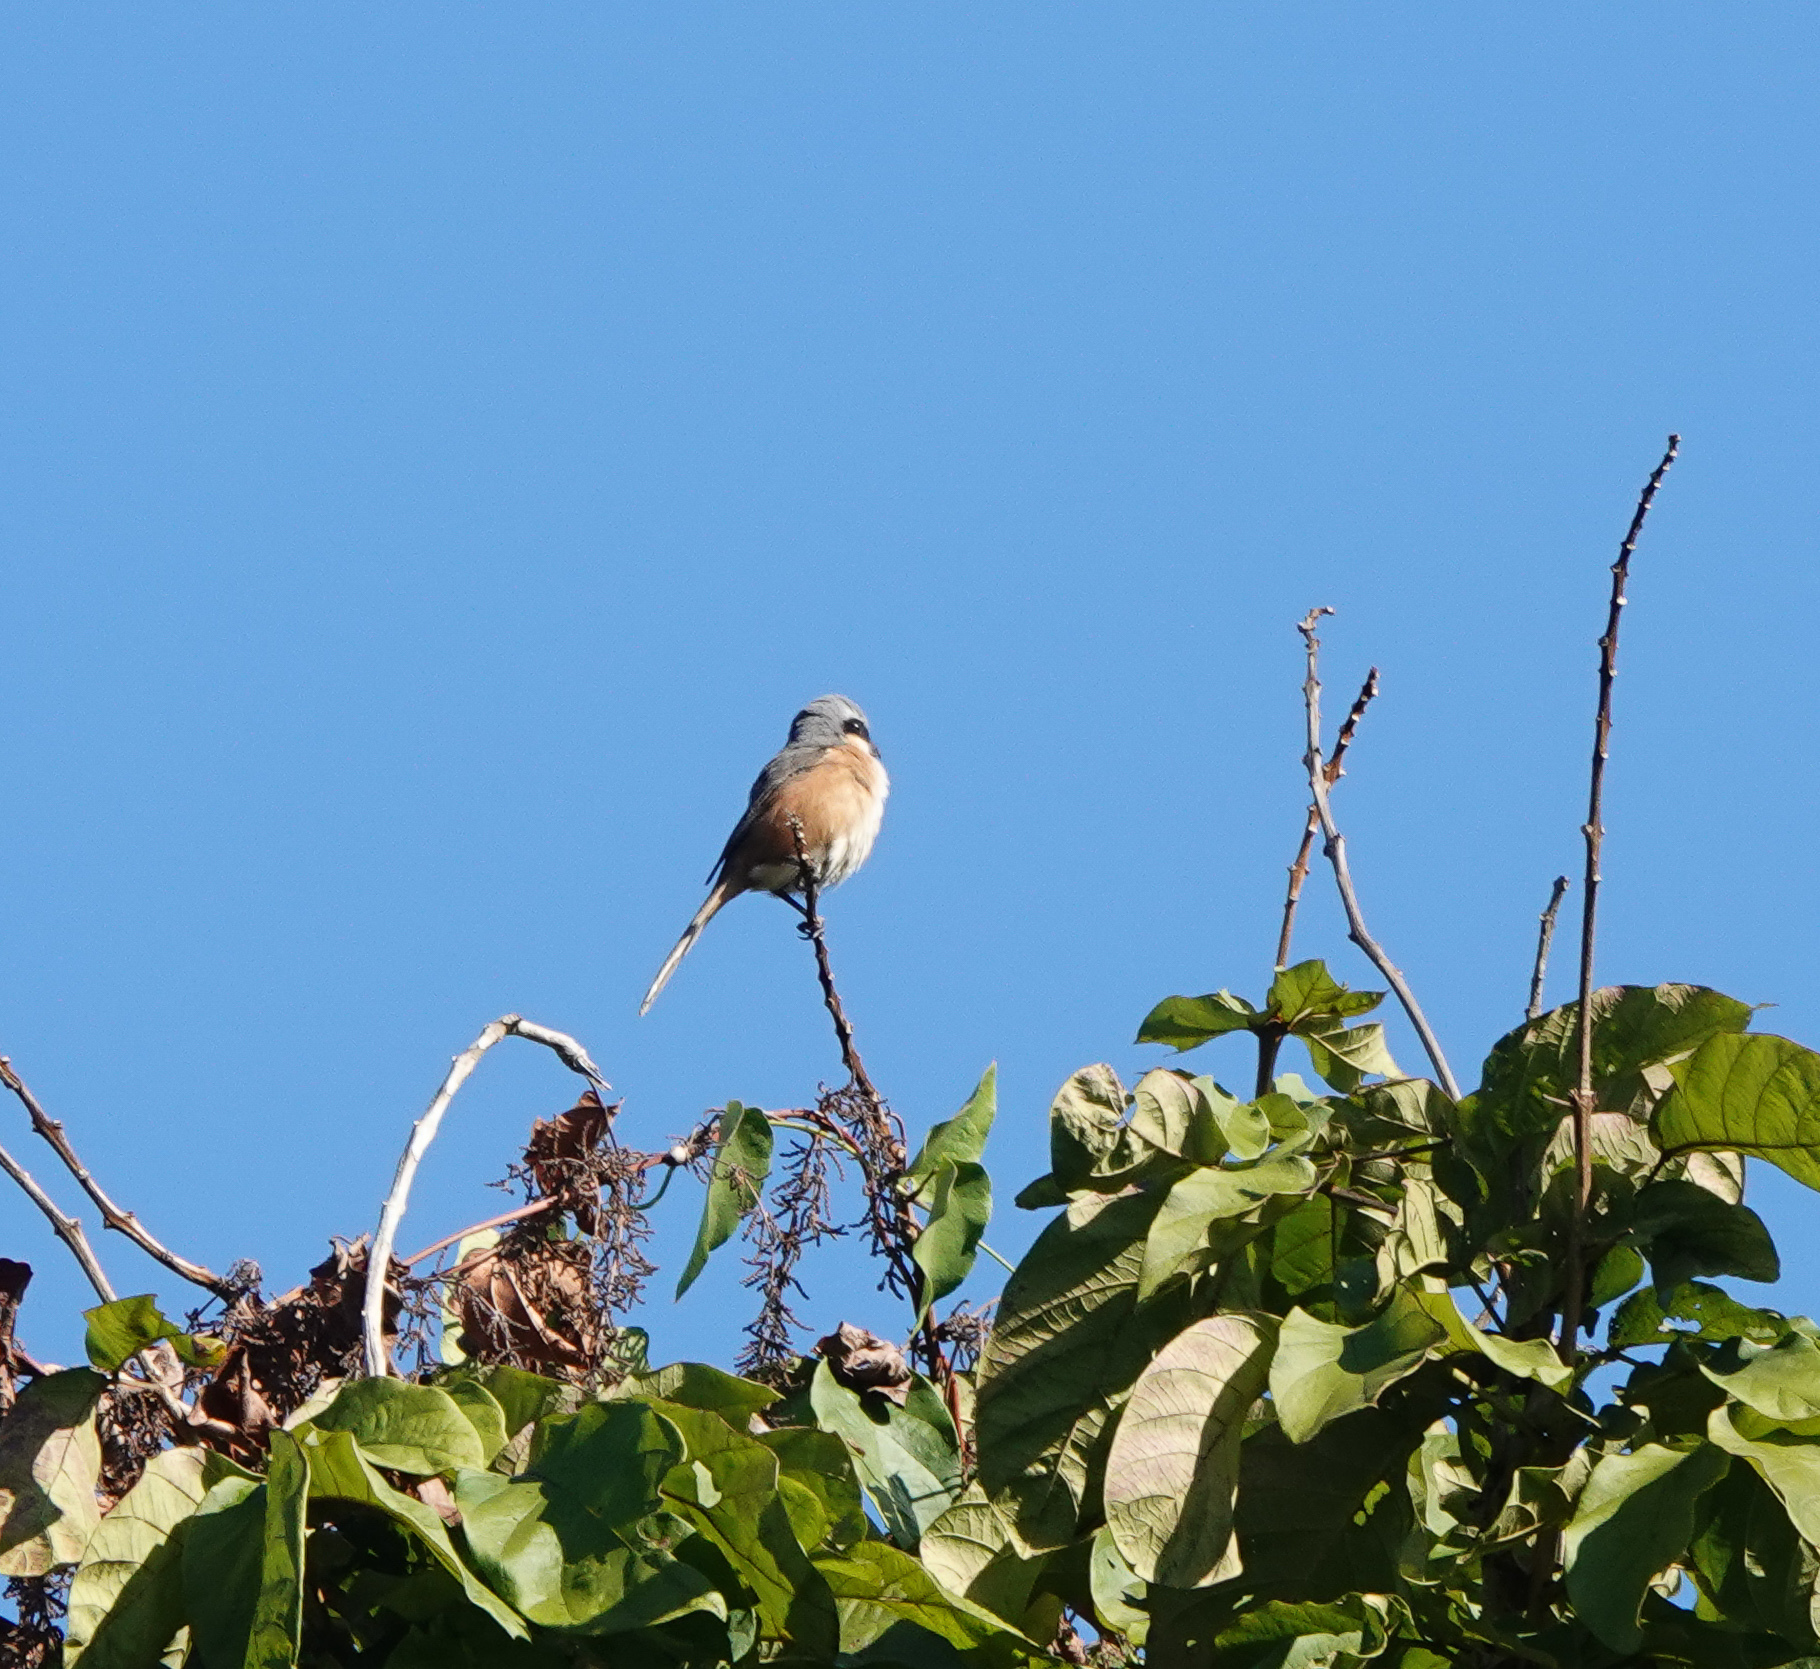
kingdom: Animalia
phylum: Chordata
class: Aves
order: Passeriformes
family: Laniidae
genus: Lanius
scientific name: Lanius tephronotus
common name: Grey-backed shrike
